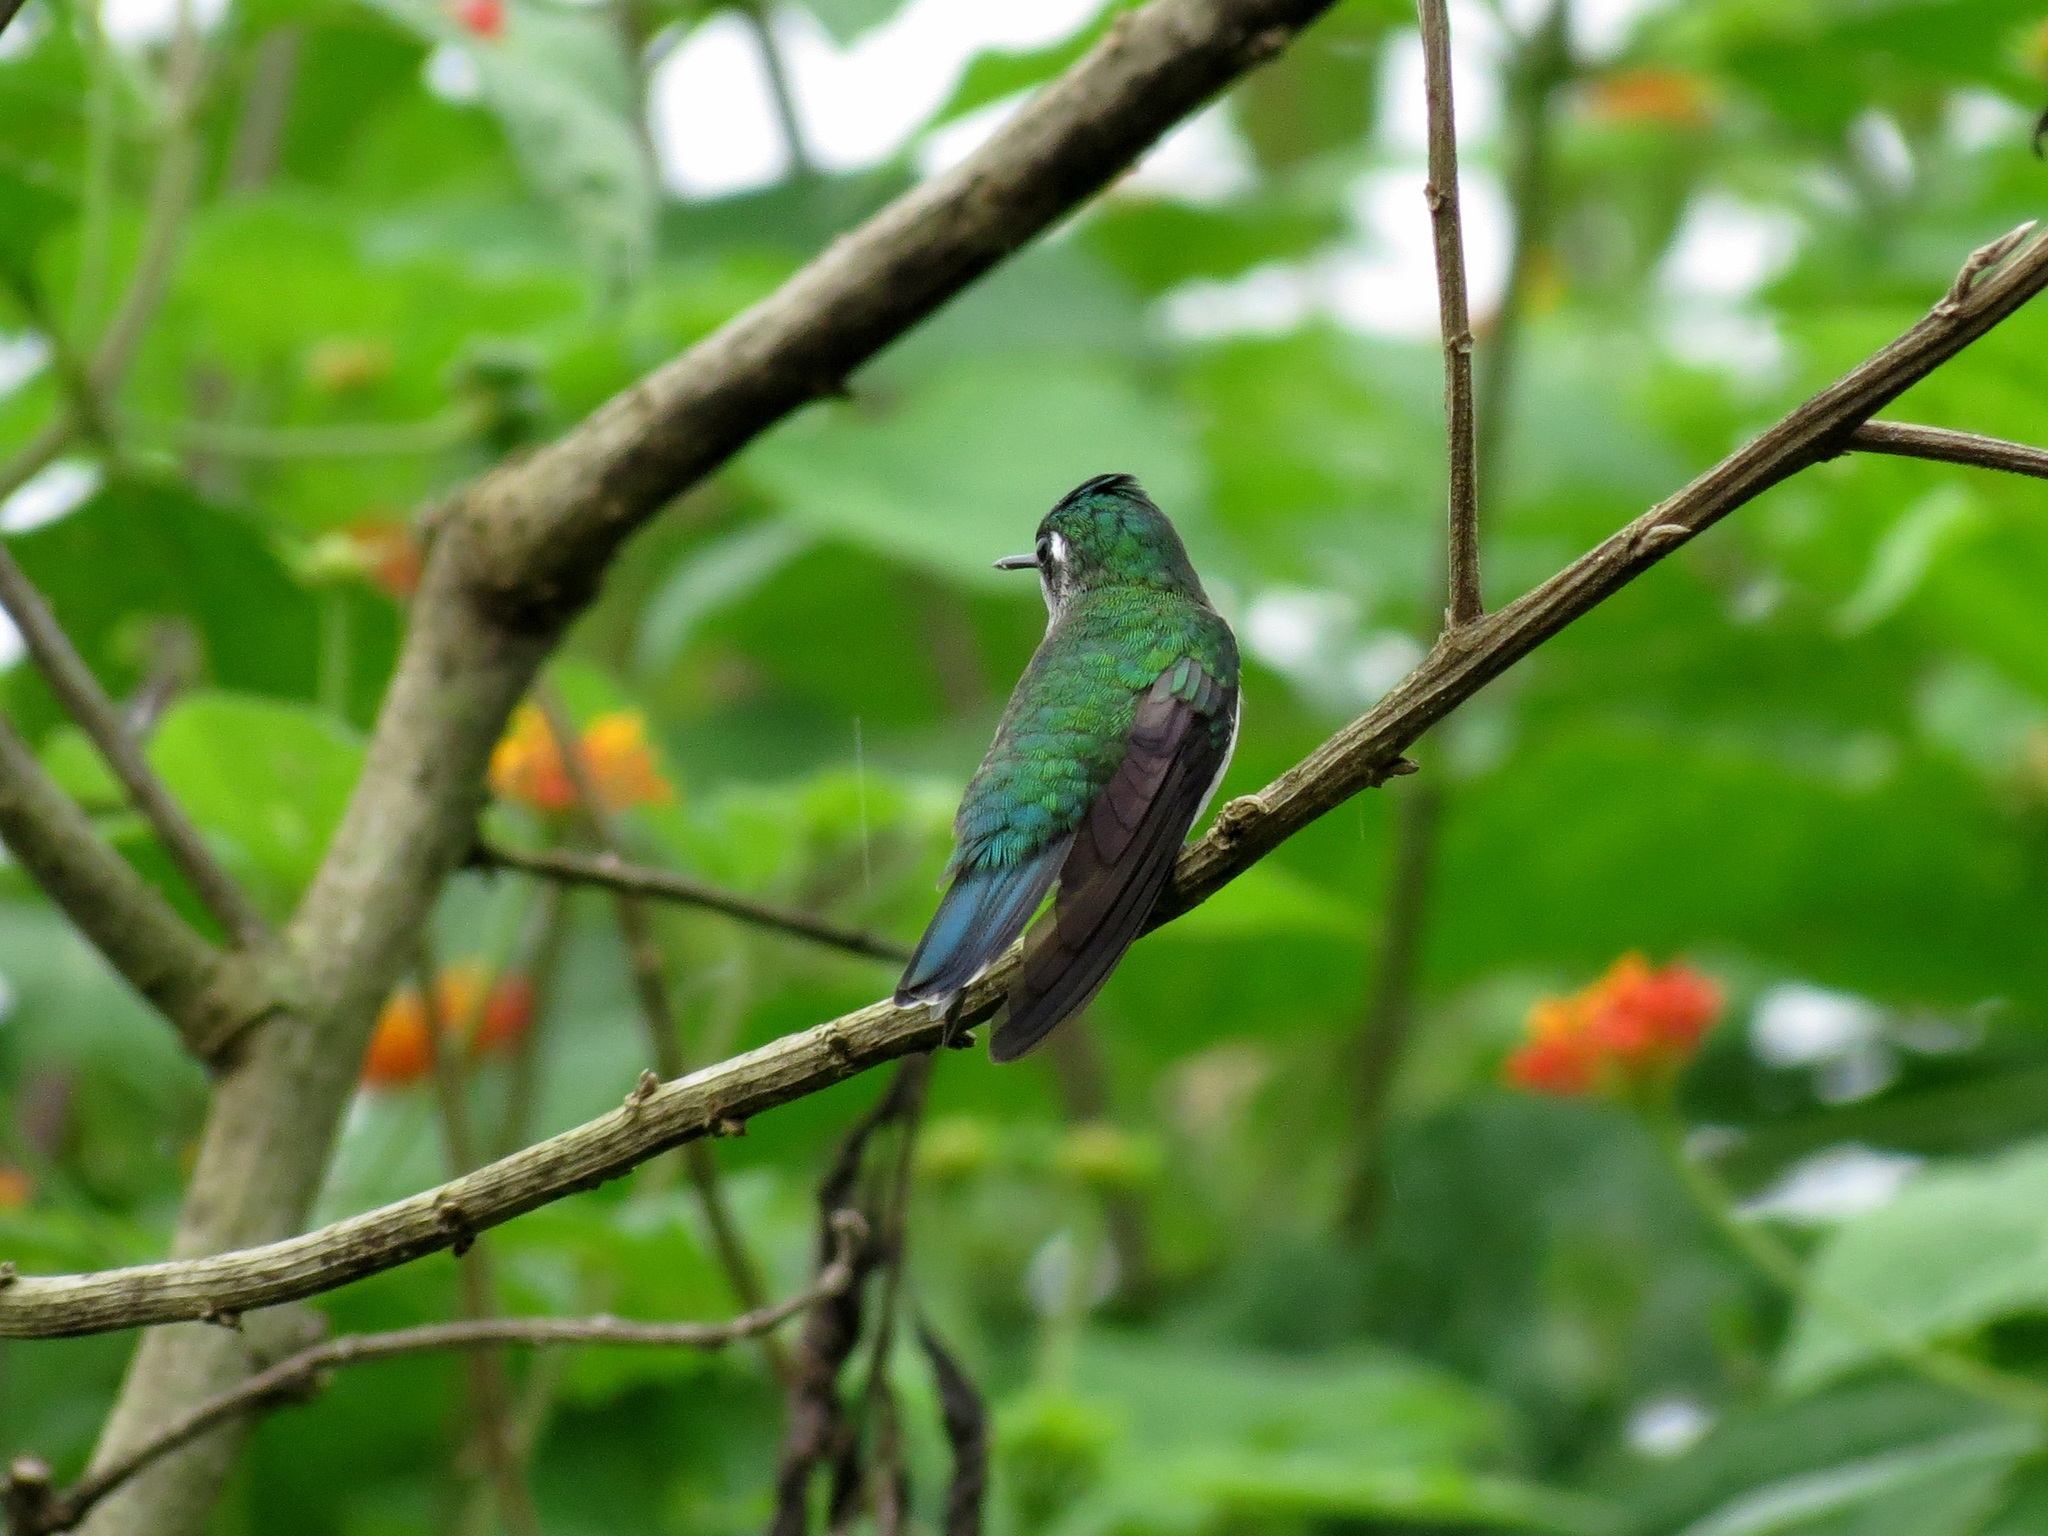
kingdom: Animalia
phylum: Chordata
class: Aves
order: Apodiformes
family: Trochilidae
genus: Klais
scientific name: Klais guimeti
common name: Violet-headed hummingbird
